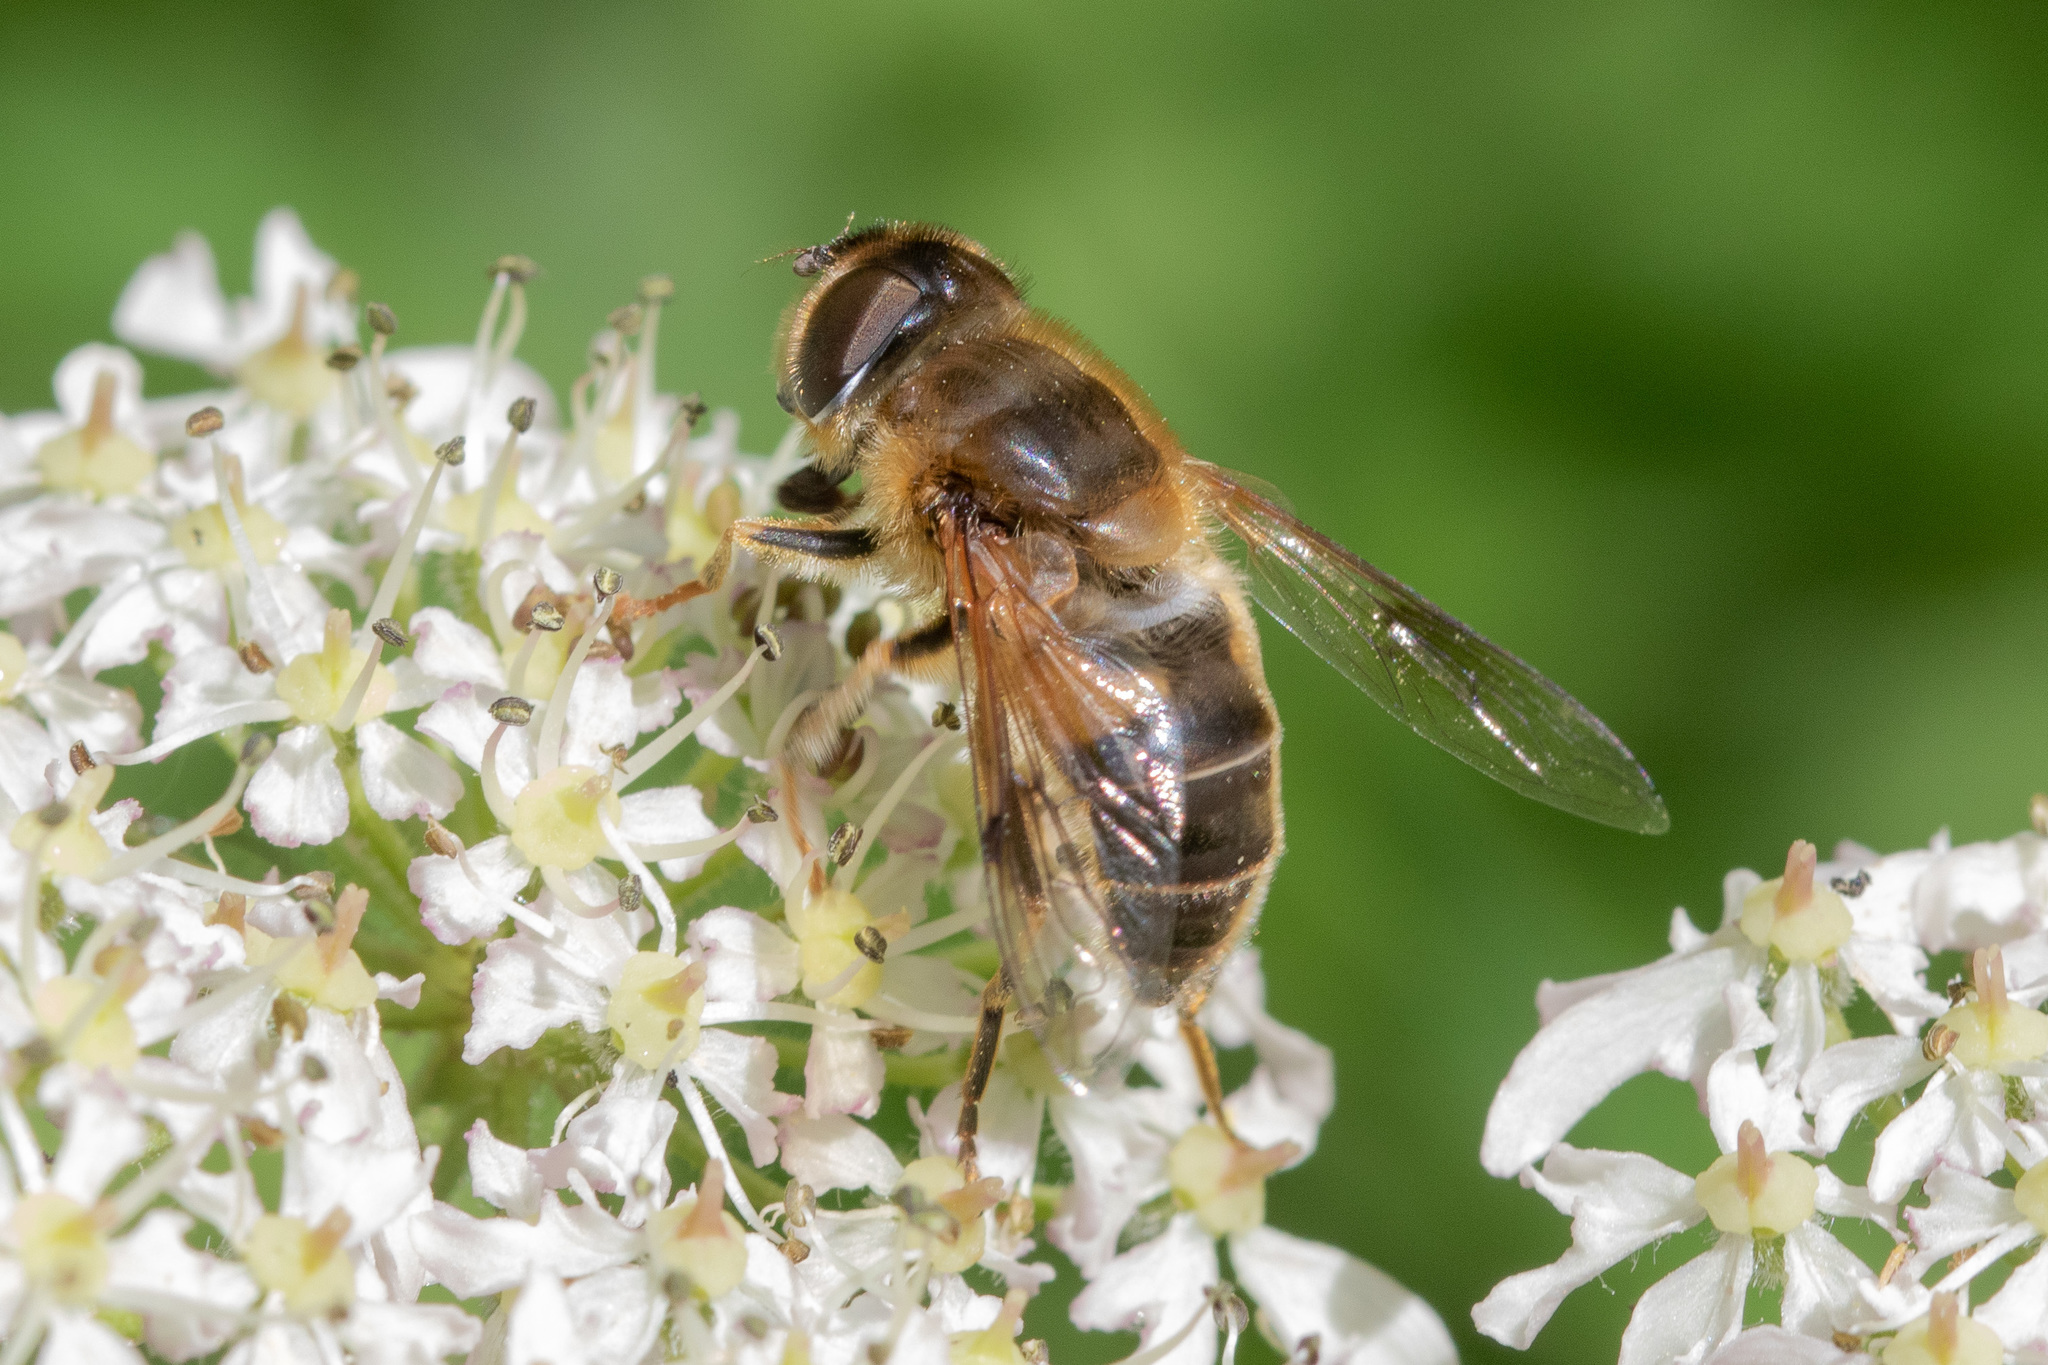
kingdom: Animalia
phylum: Arthropoda
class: Insecta
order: Diptera
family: Syrphidae
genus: Eristalis
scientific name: Eristalis pertinax
